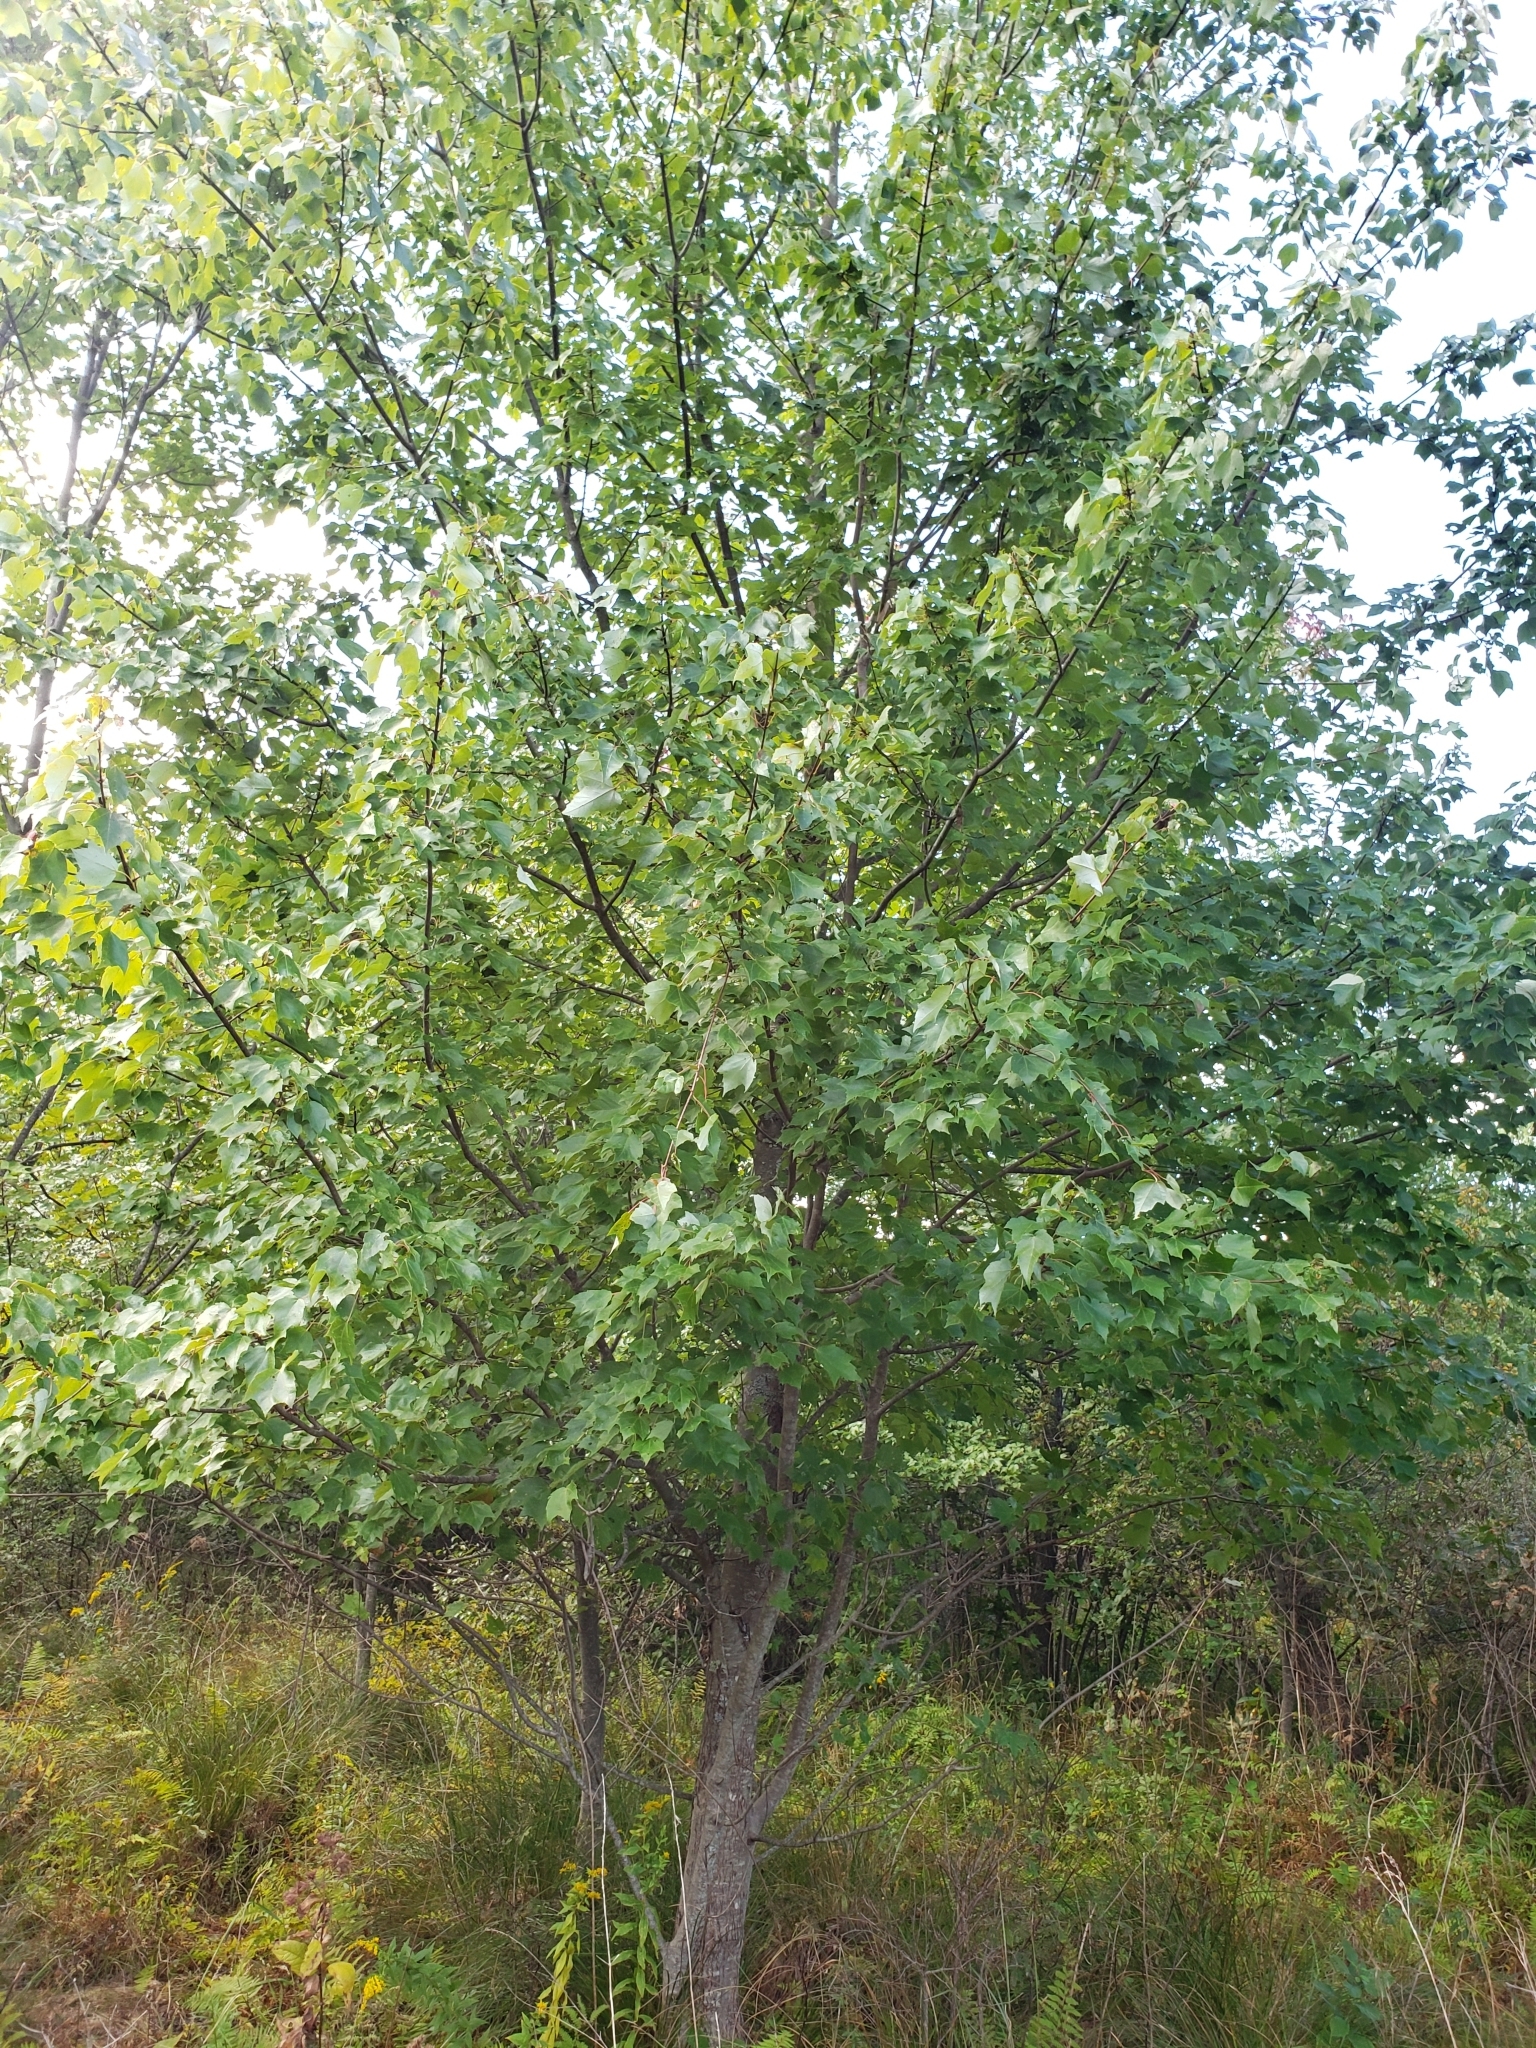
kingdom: Plantae
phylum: Tracheophyta
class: Magnoliopsida
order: Sapindales
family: Sapindaceae
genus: Acer
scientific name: Acer rubrum
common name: Red maple
